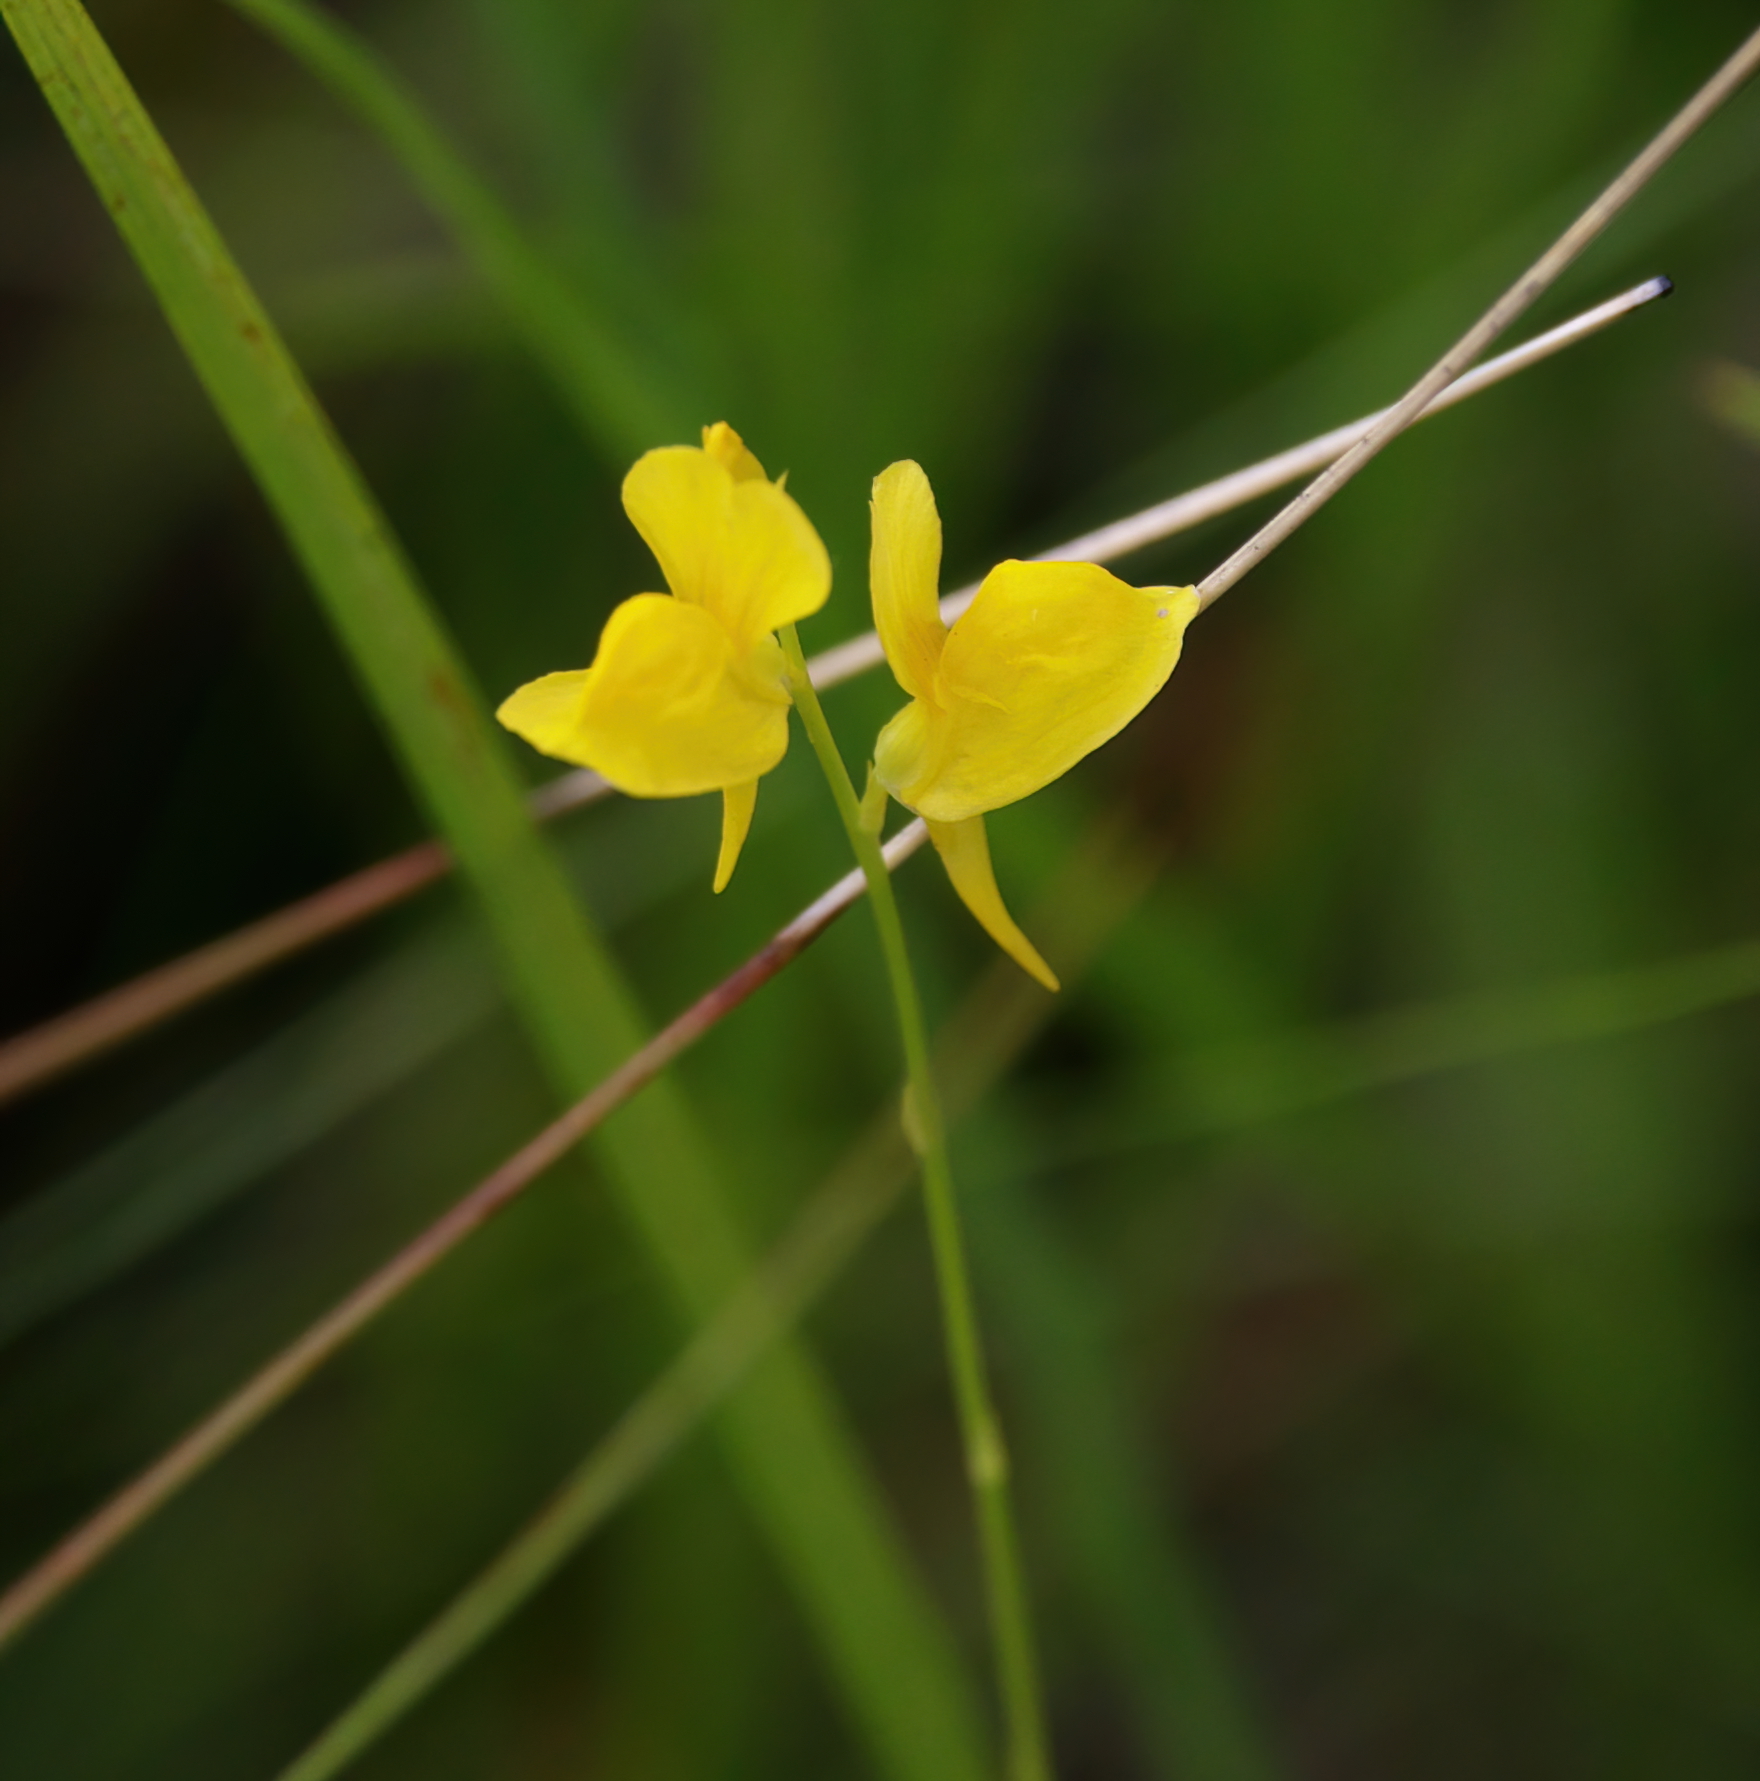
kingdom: Plantae
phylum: Tracheophyta
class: Magnoliopsida
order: Lamiales
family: Lentibulariaceae
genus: Utricularia
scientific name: Utricularia cornuta
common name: Horned bladderwort
